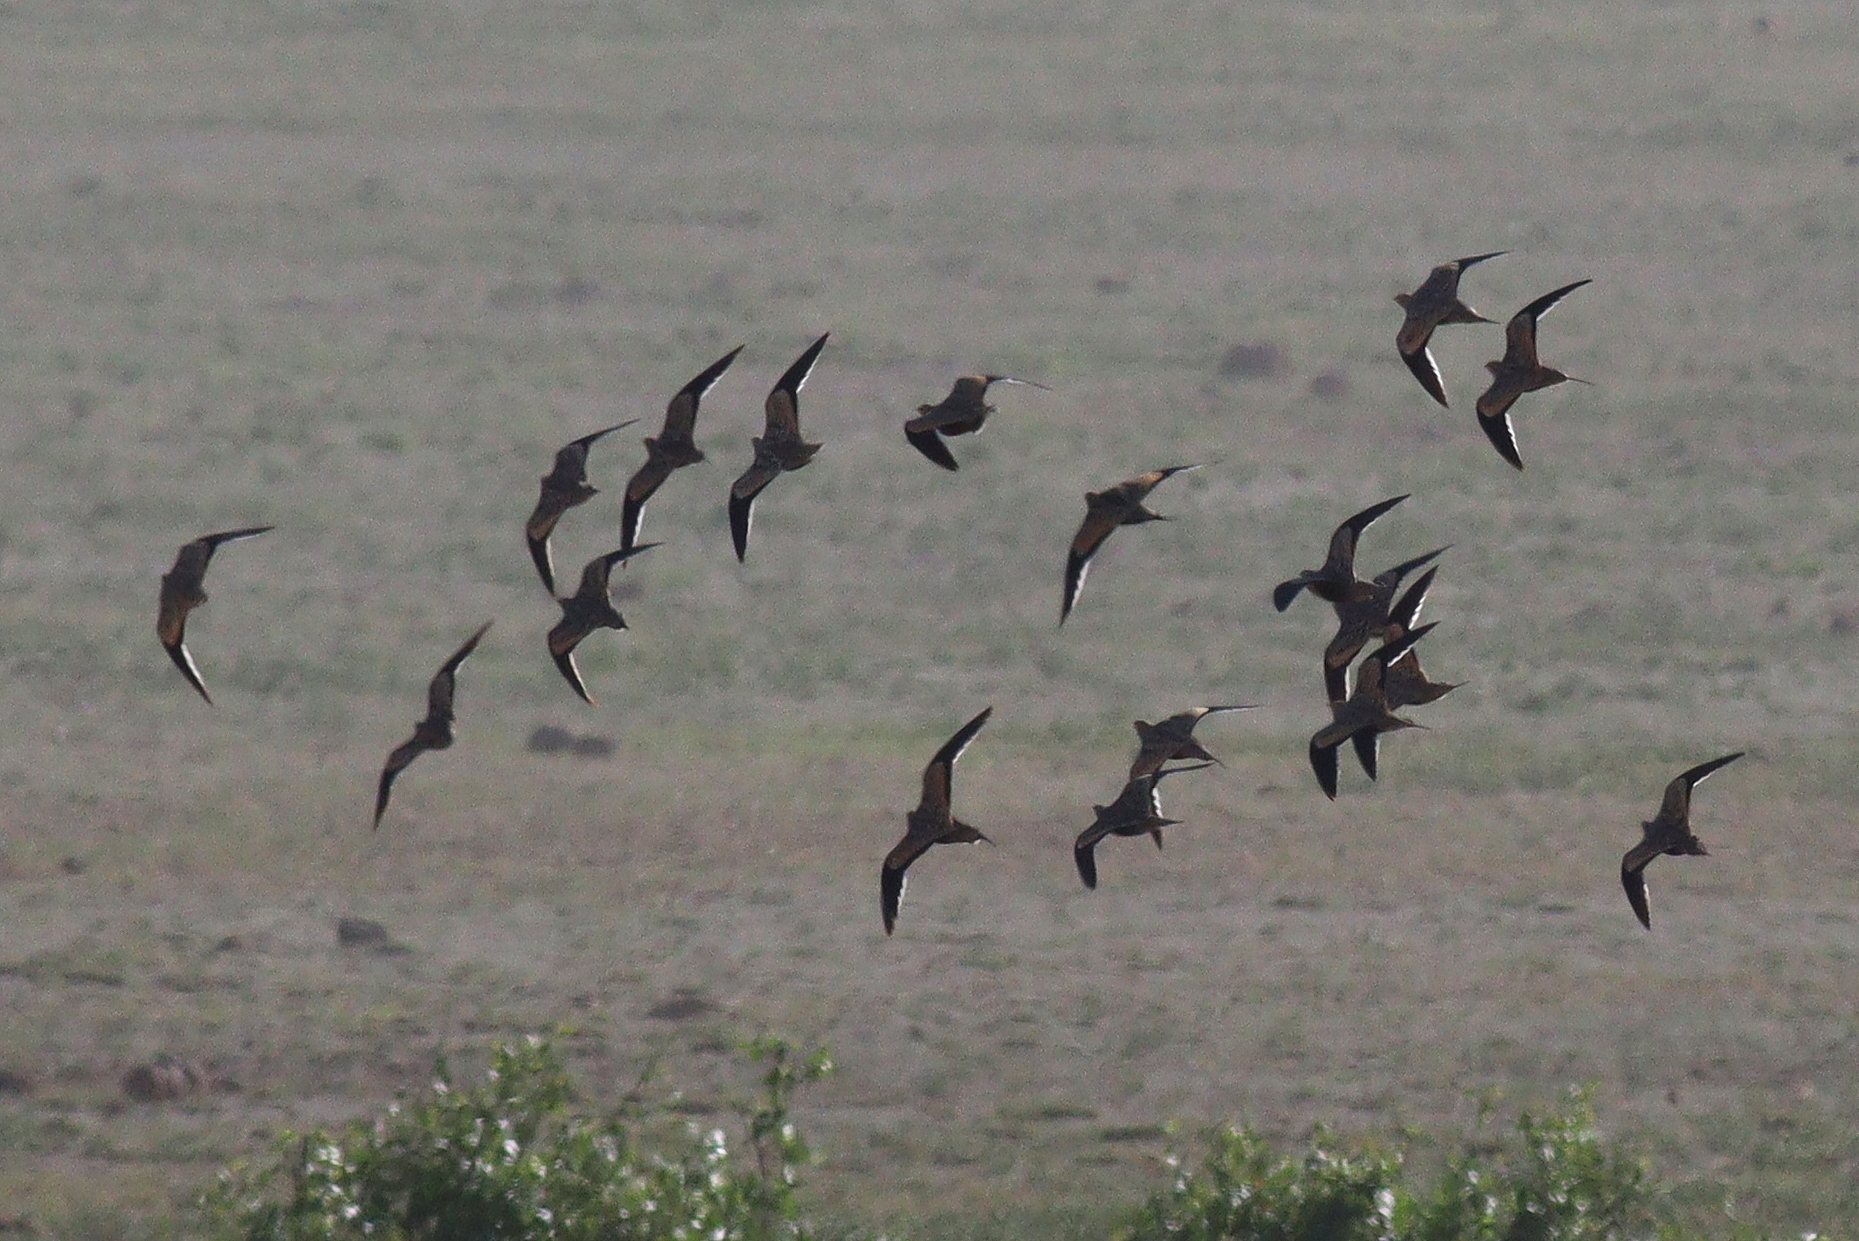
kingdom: Animalia
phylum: Chordata
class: Aves
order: Pteroclidiformes
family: Pteroclididae
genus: Pterocles
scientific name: Pterocles exustus
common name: Chestnut-bellied sandgrouse
